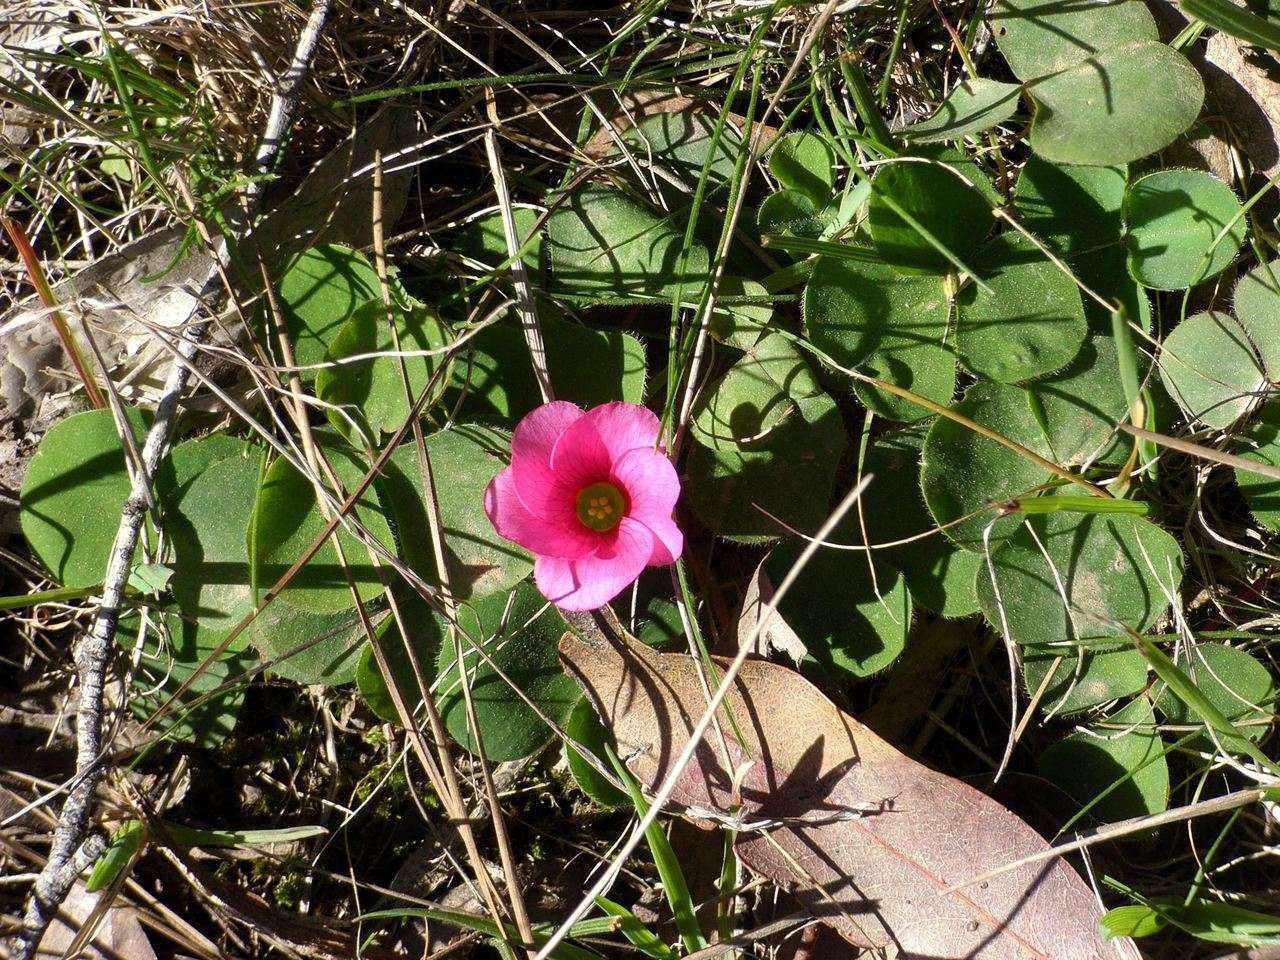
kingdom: Plantae
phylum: Tracheophyta
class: Magnoliopsida
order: Oxalidales
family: Oxalidaceae
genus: Oxalis
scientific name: Oxalis purpurea
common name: Purple woodsorrel
